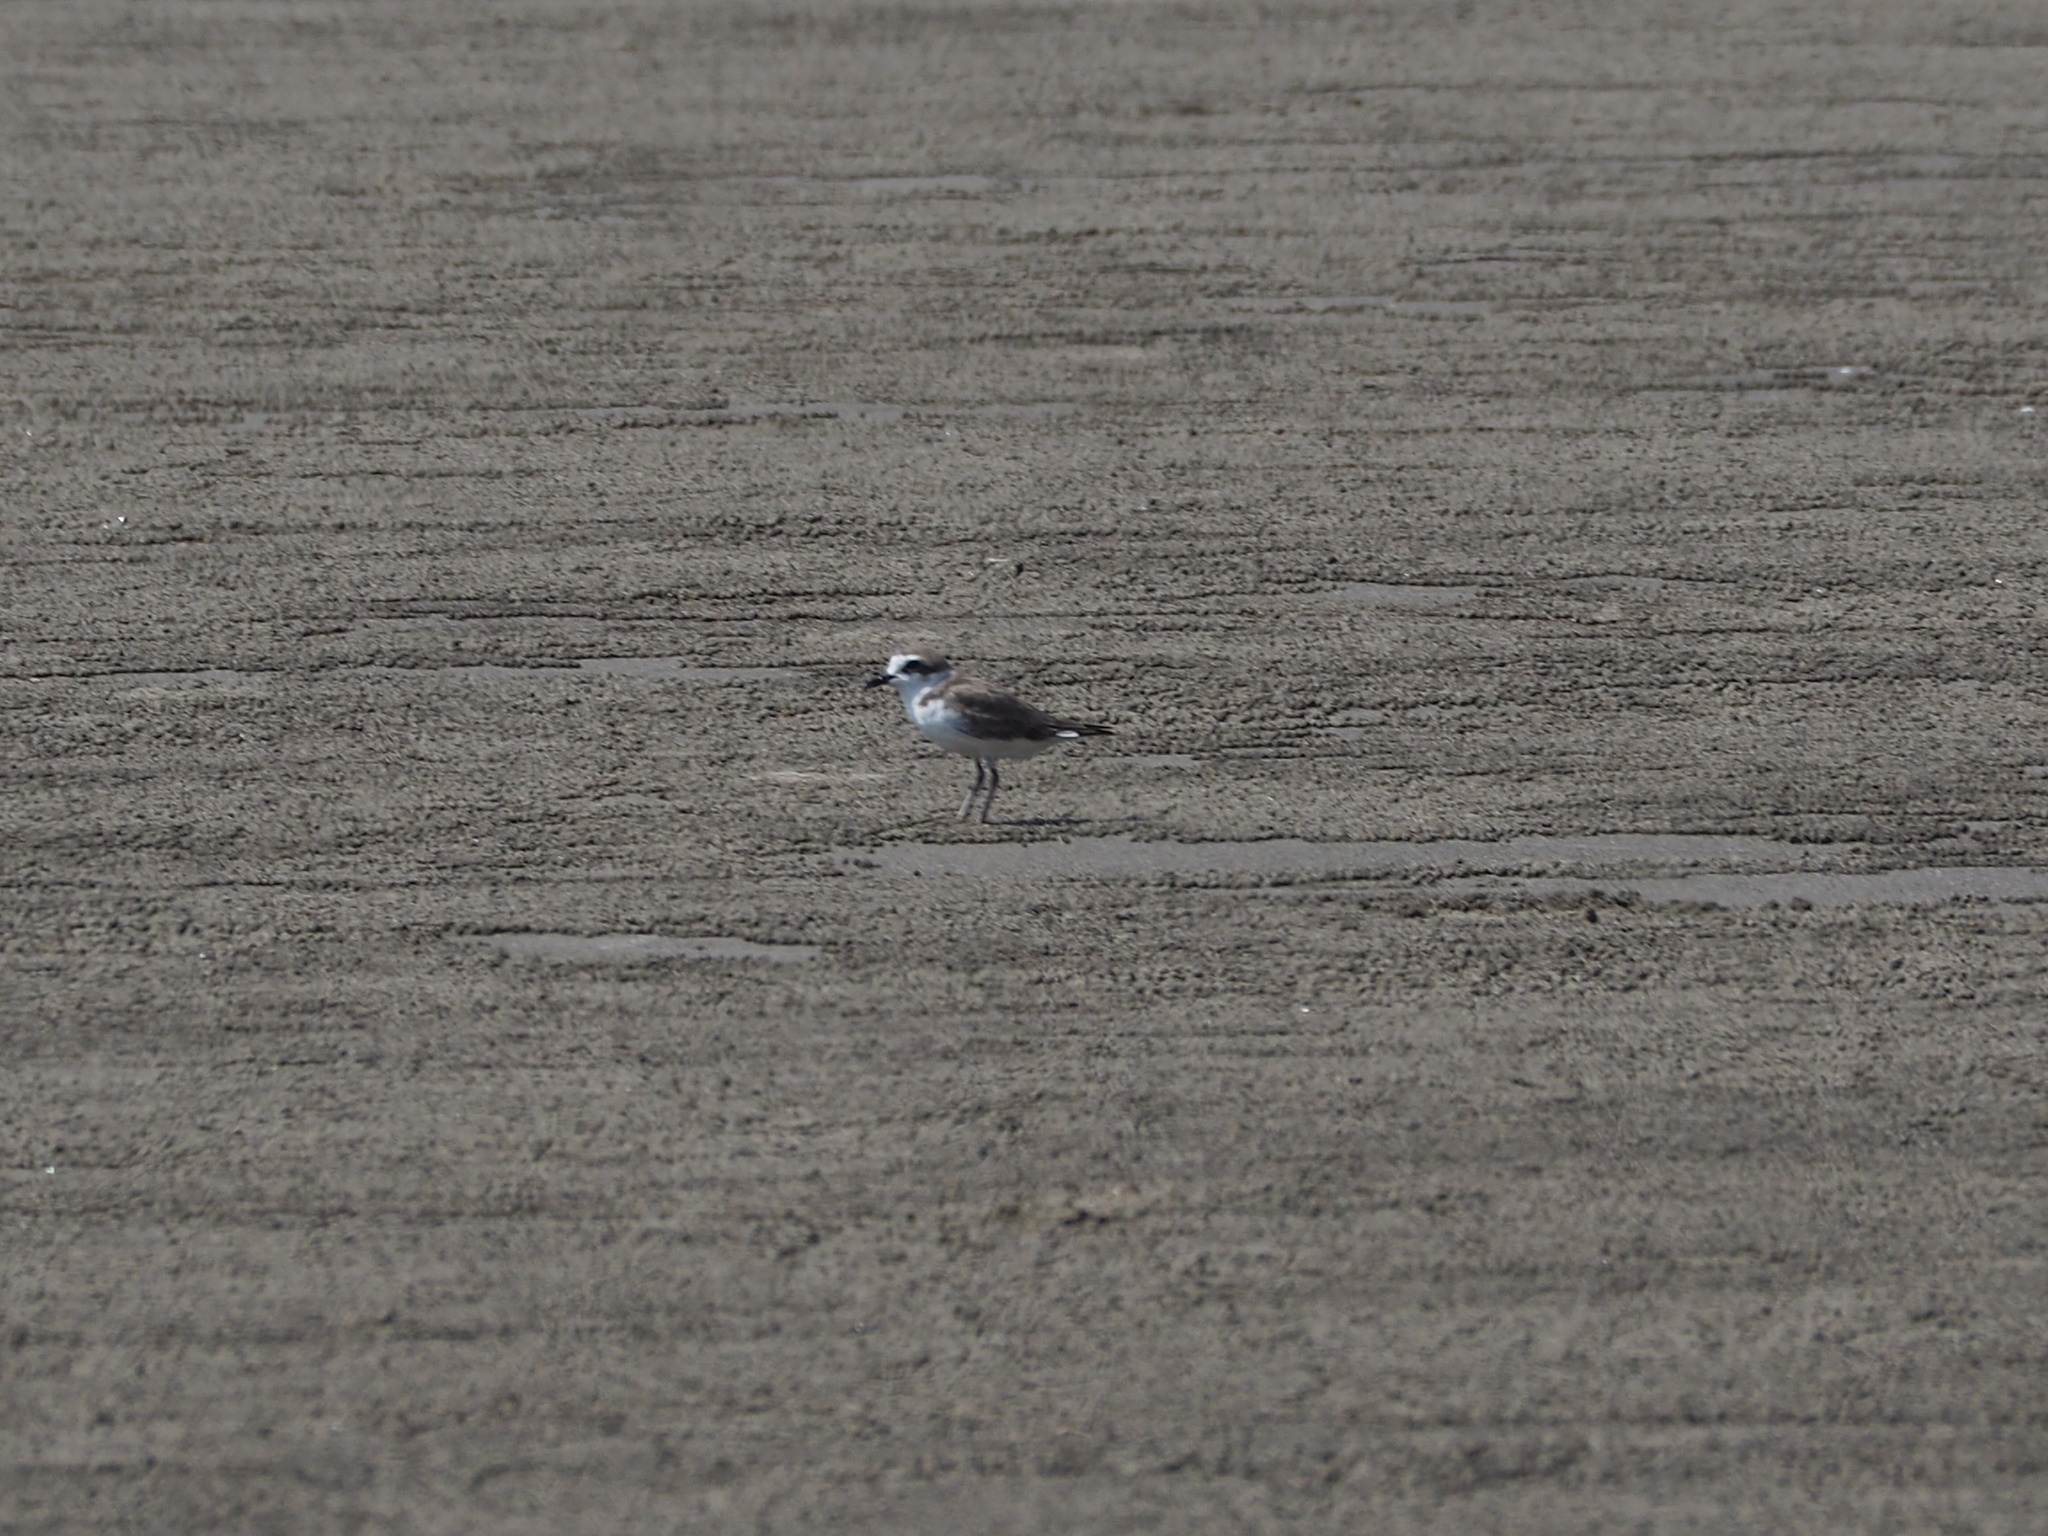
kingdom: Animalia
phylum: Chordata
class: Aves
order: Charadriiformes
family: Charadriidae
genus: Charadrius
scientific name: Charadrius alexandrinus
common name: Kentish plover
